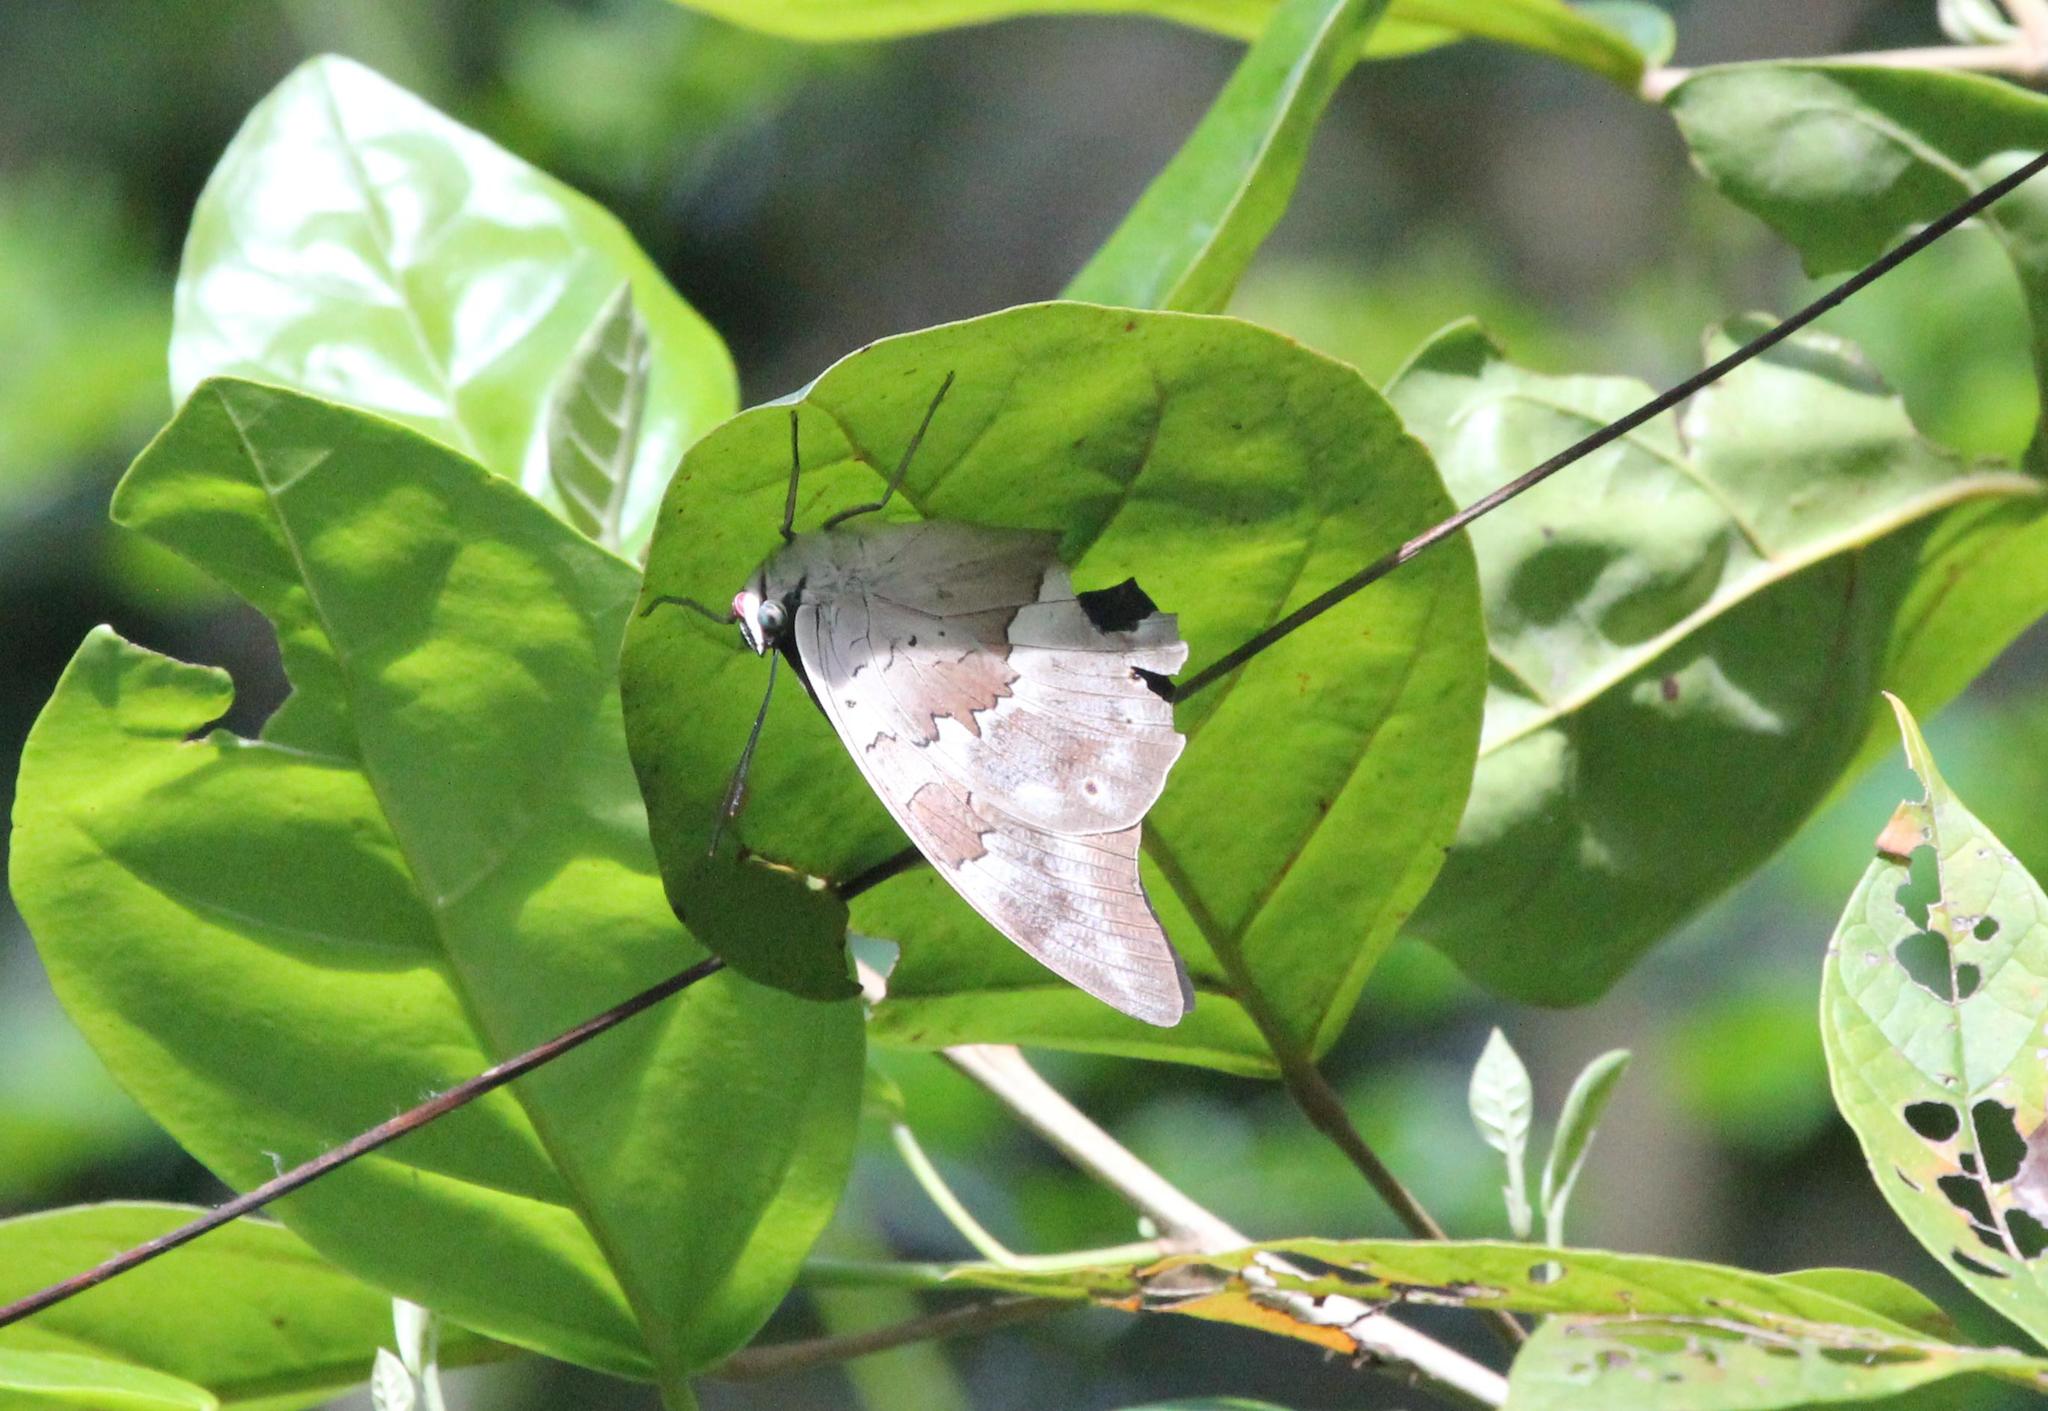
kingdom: Animalia
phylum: Arthropoda
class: Insecta
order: Lepidoptera
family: Nymphalidae
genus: Prepona
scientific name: Prepona demophoon
